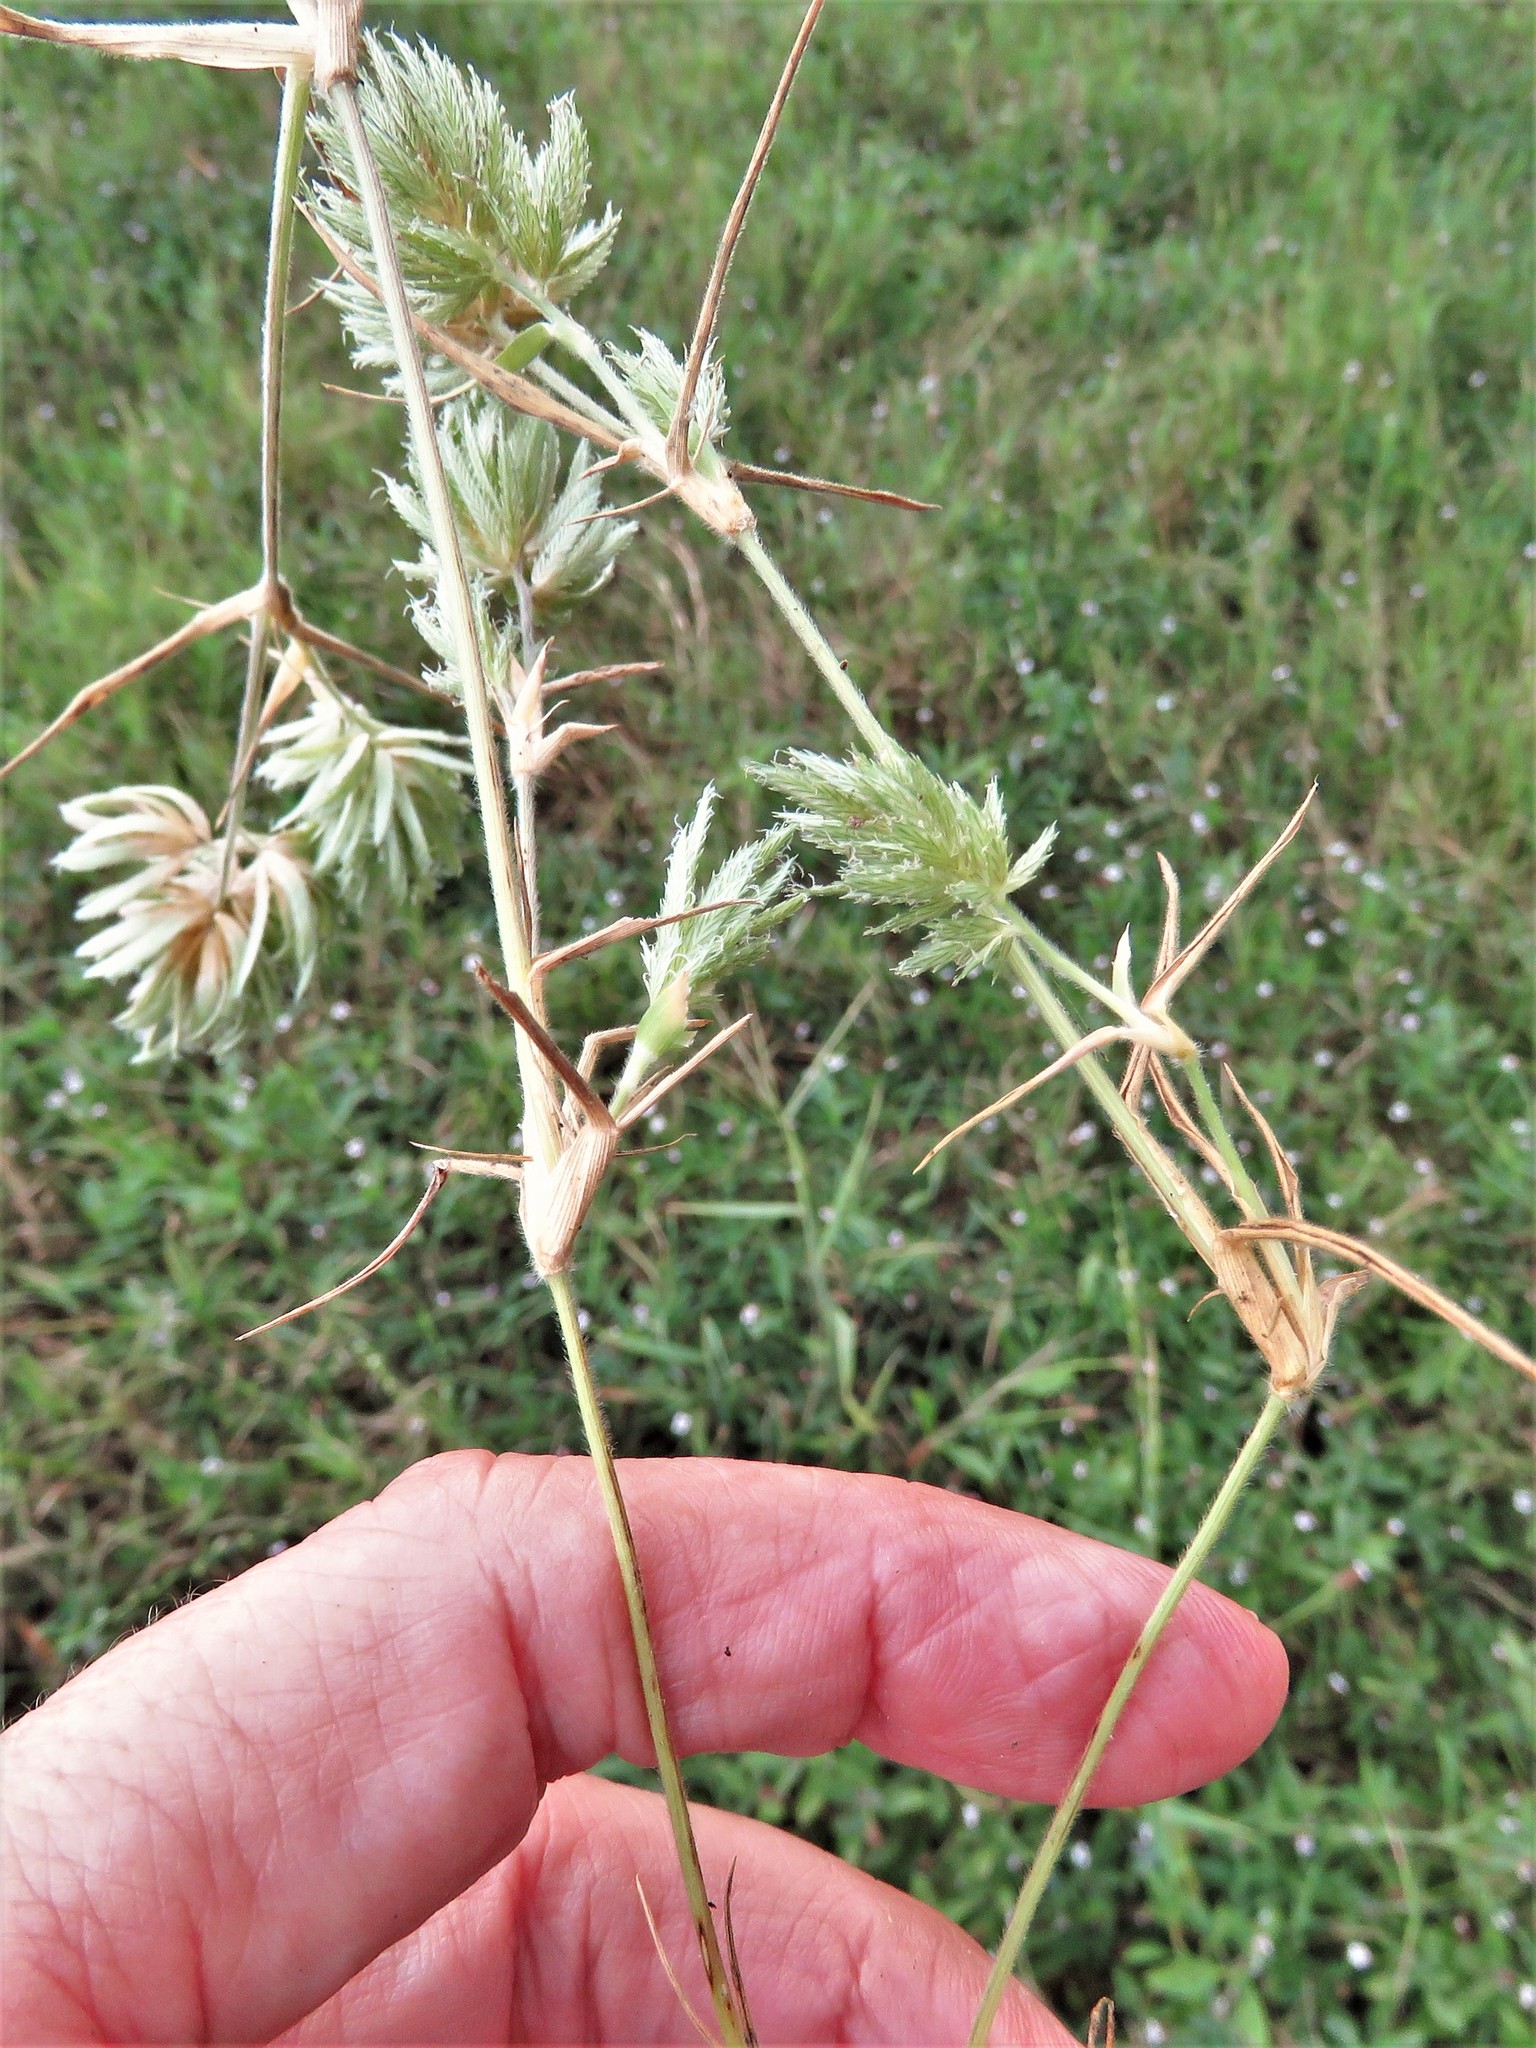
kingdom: Plantae
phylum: Tracheophyta
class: Liliopsida
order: Poales
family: Poaceae
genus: Eragrostis
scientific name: Eragrostis reptans
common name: Creeping love grass
